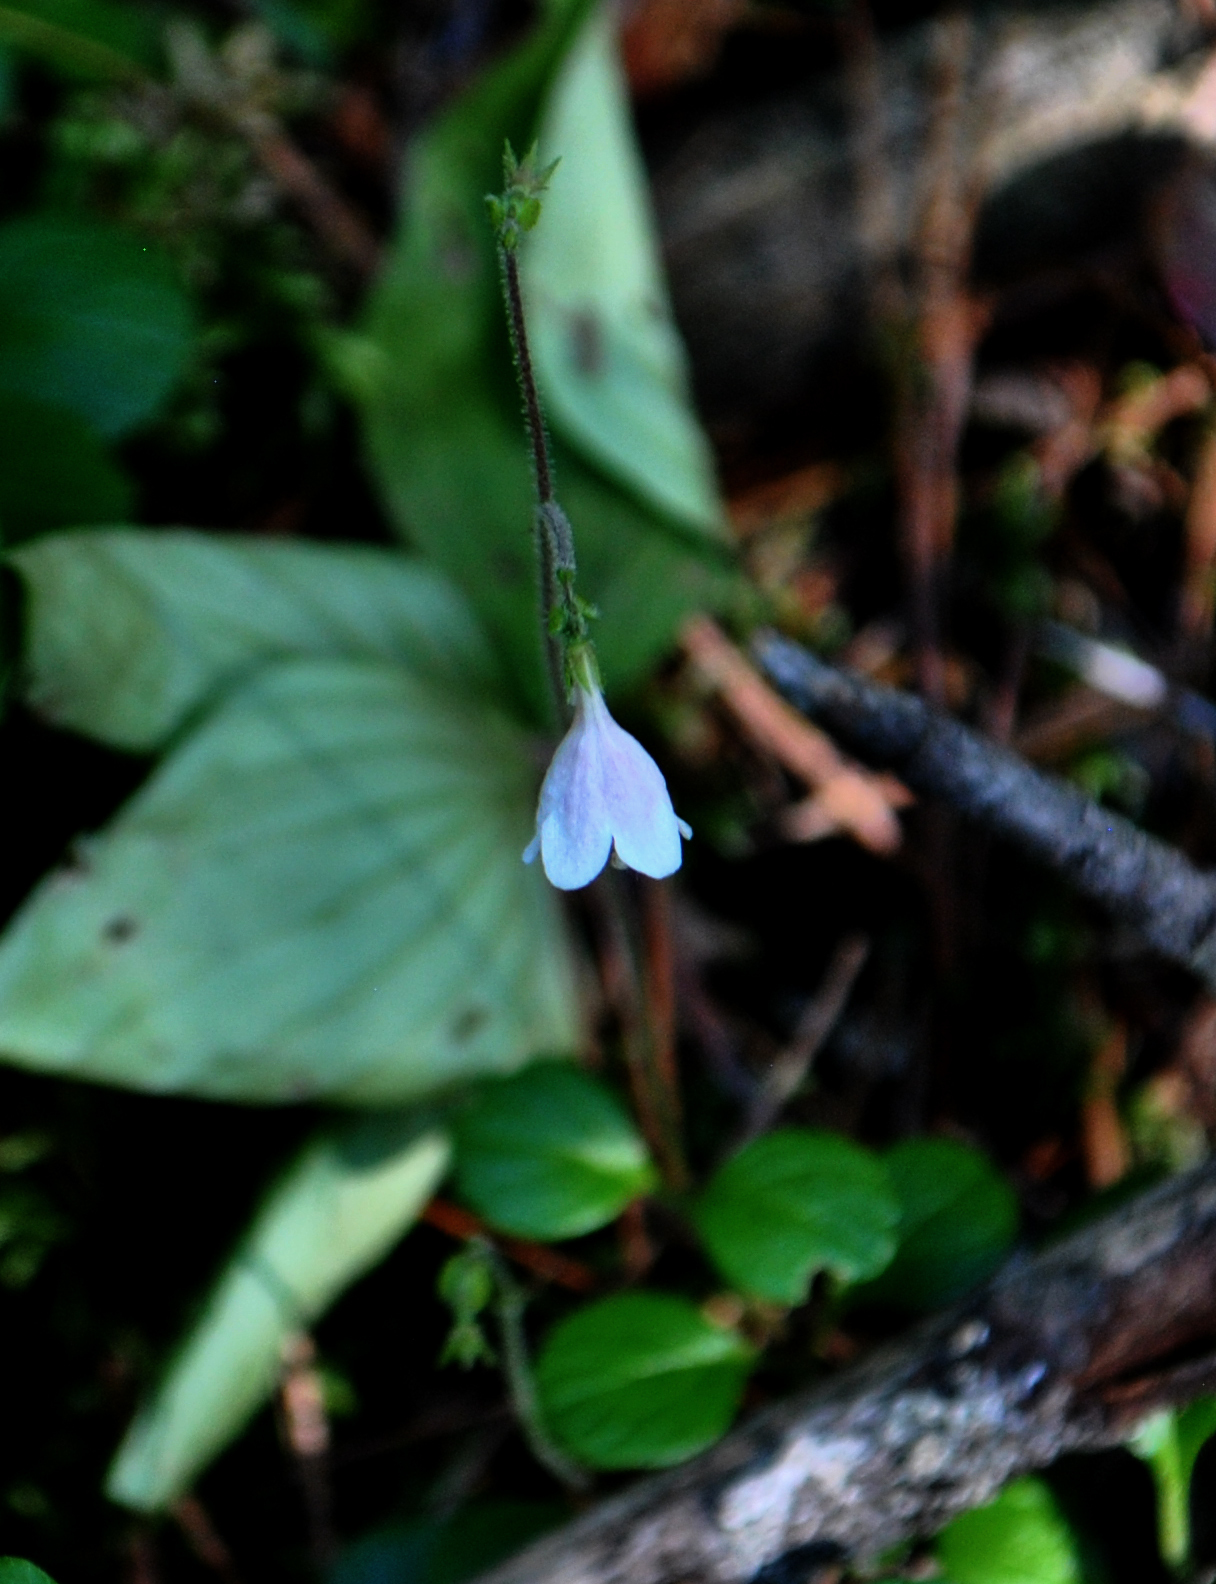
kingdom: Plantae
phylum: Tracheophyta
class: Magnoliopsida
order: Dipsacales
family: Caprifoliaceae
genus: Linnaea
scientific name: Linnaea borealis
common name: Twinflower
